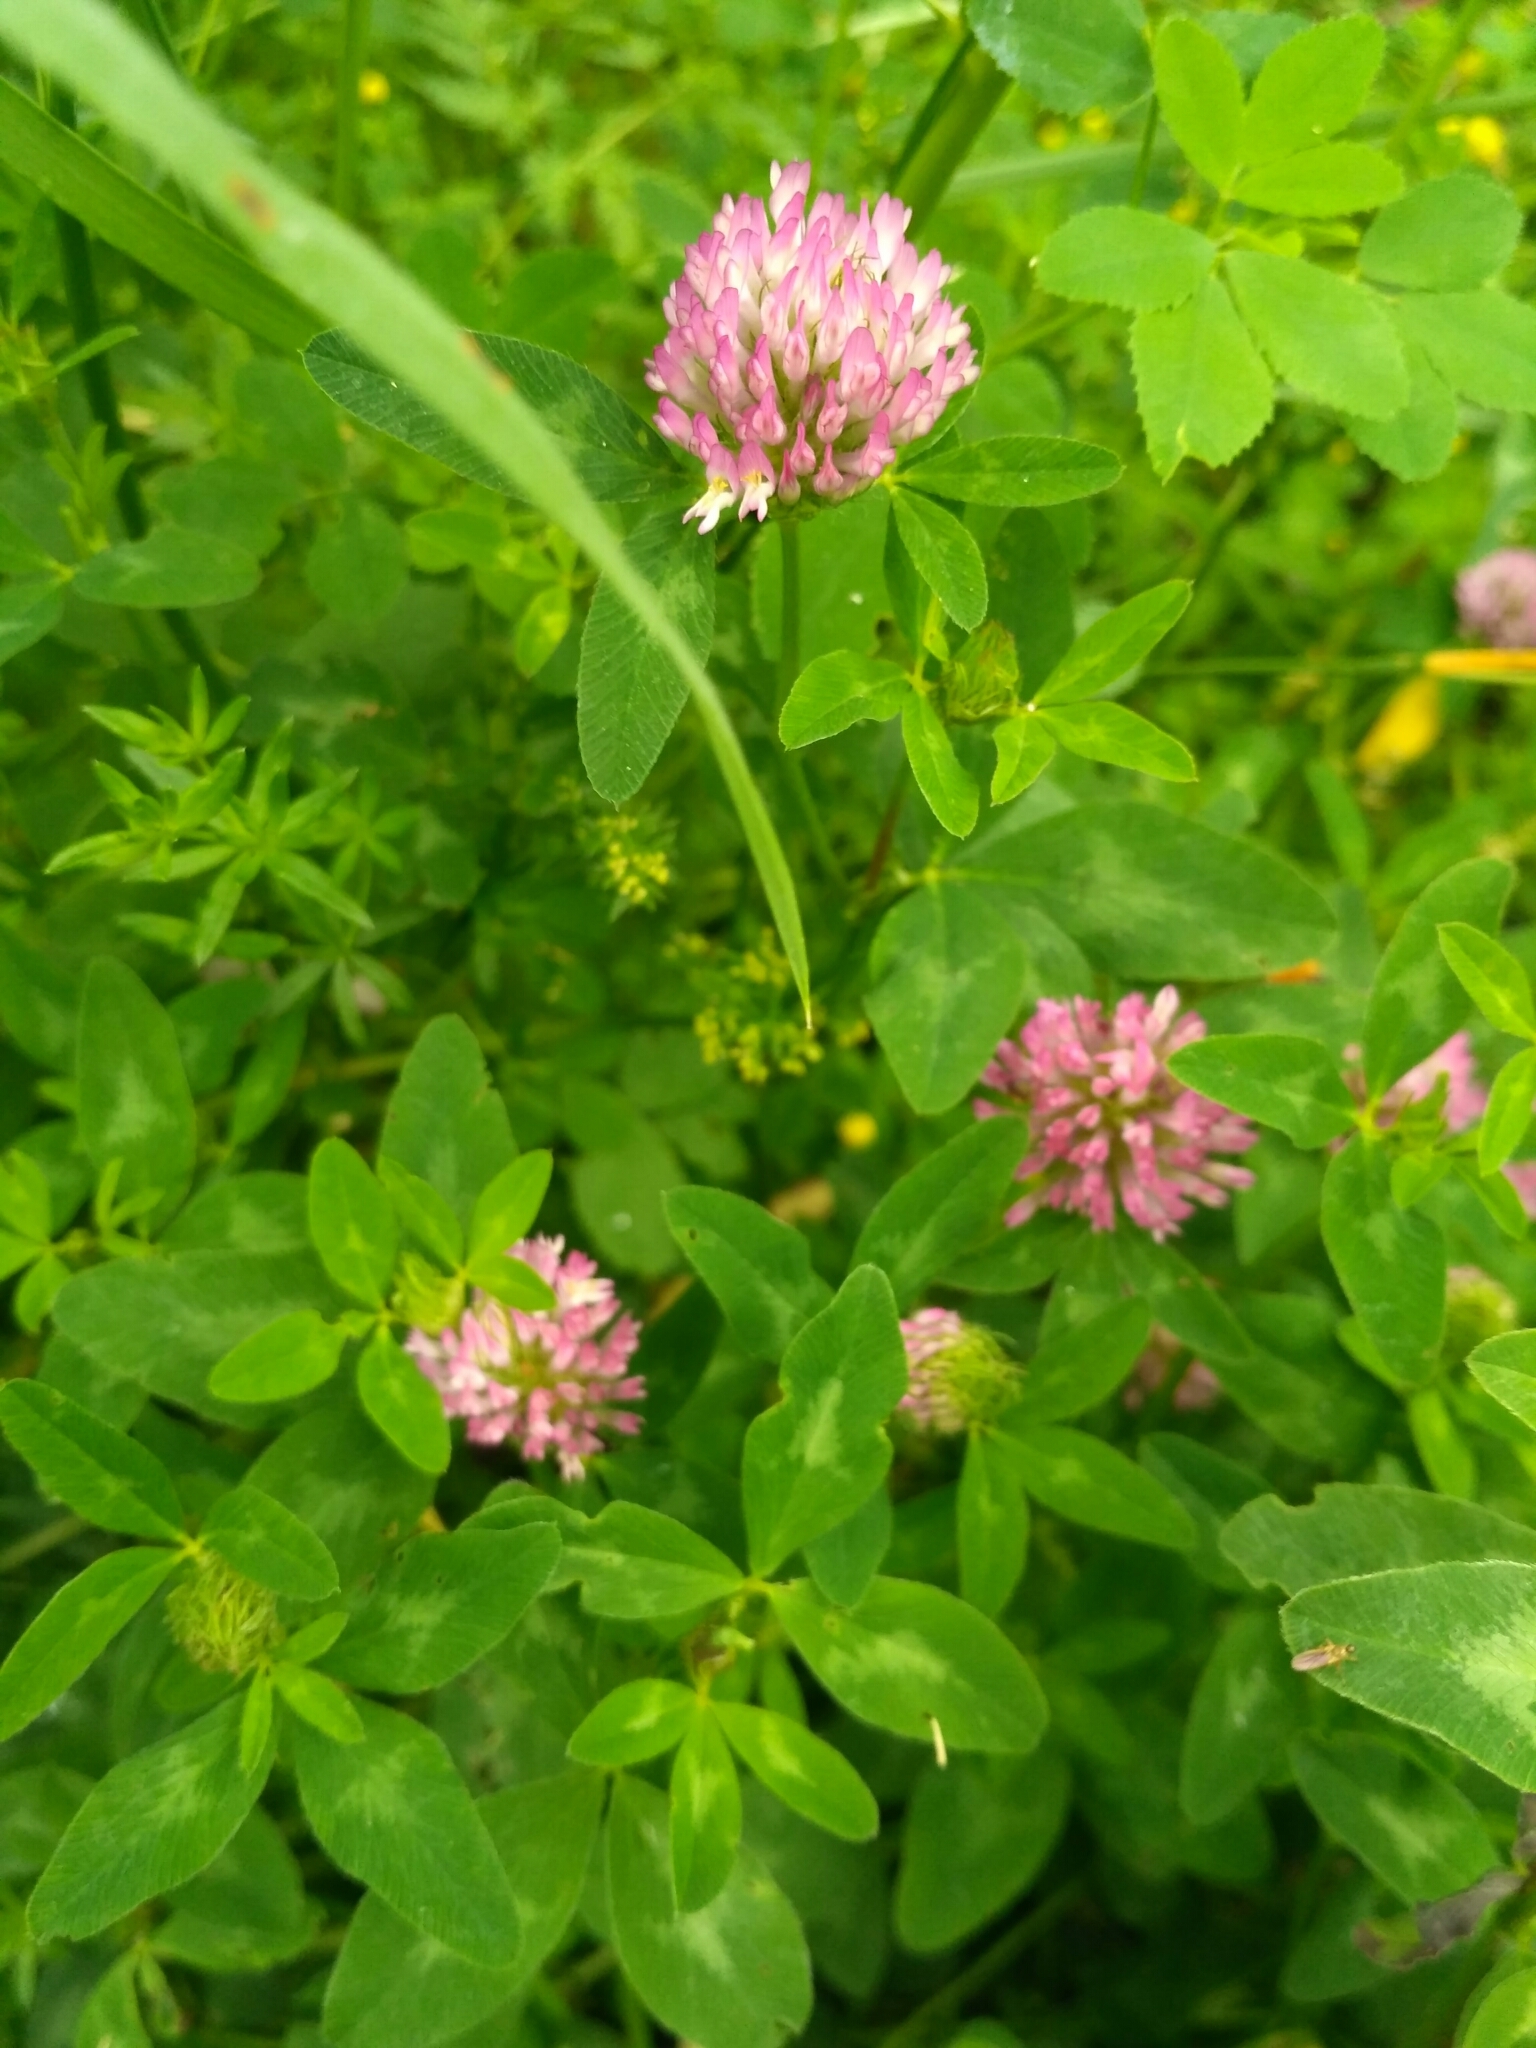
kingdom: Plantae
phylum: Tracheophyta
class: Magnoliopsida
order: Fabales
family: Fabaceae
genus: Trifolium
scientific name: Trifolium pratense
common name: Red clover
